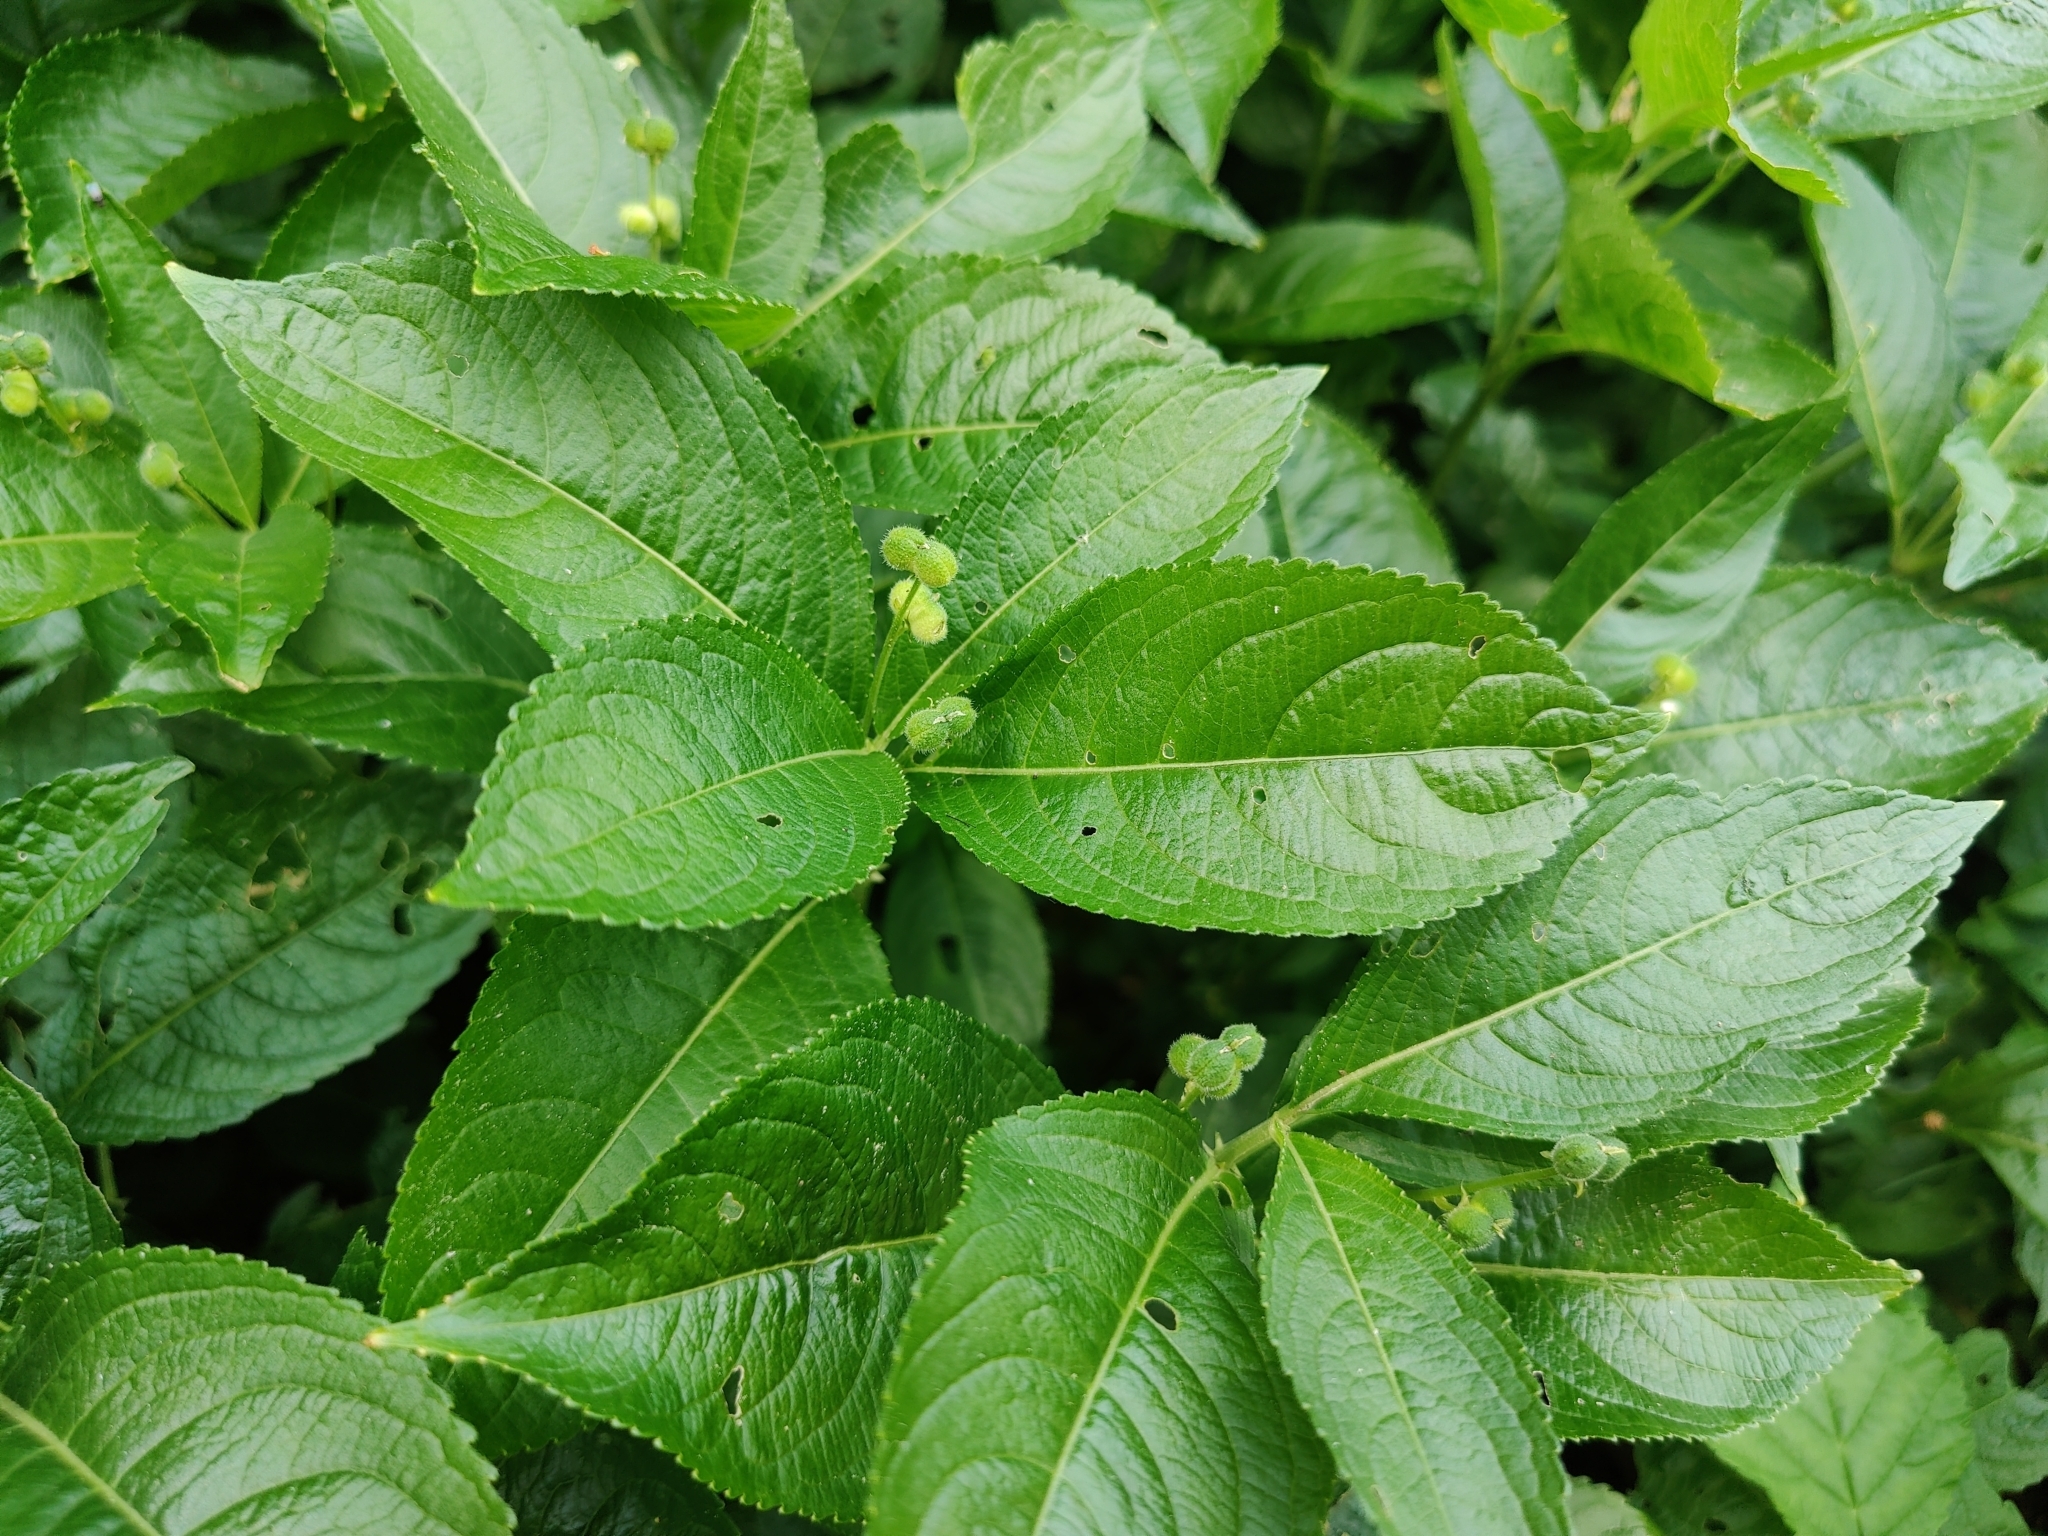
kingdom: Plantae
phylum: Tracheophyta
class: Magnoliopsida
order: Malpighiales
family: Euphorbiaceae
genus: Mercurialis
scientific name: Mercurialis perennis
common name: Dog mercury
